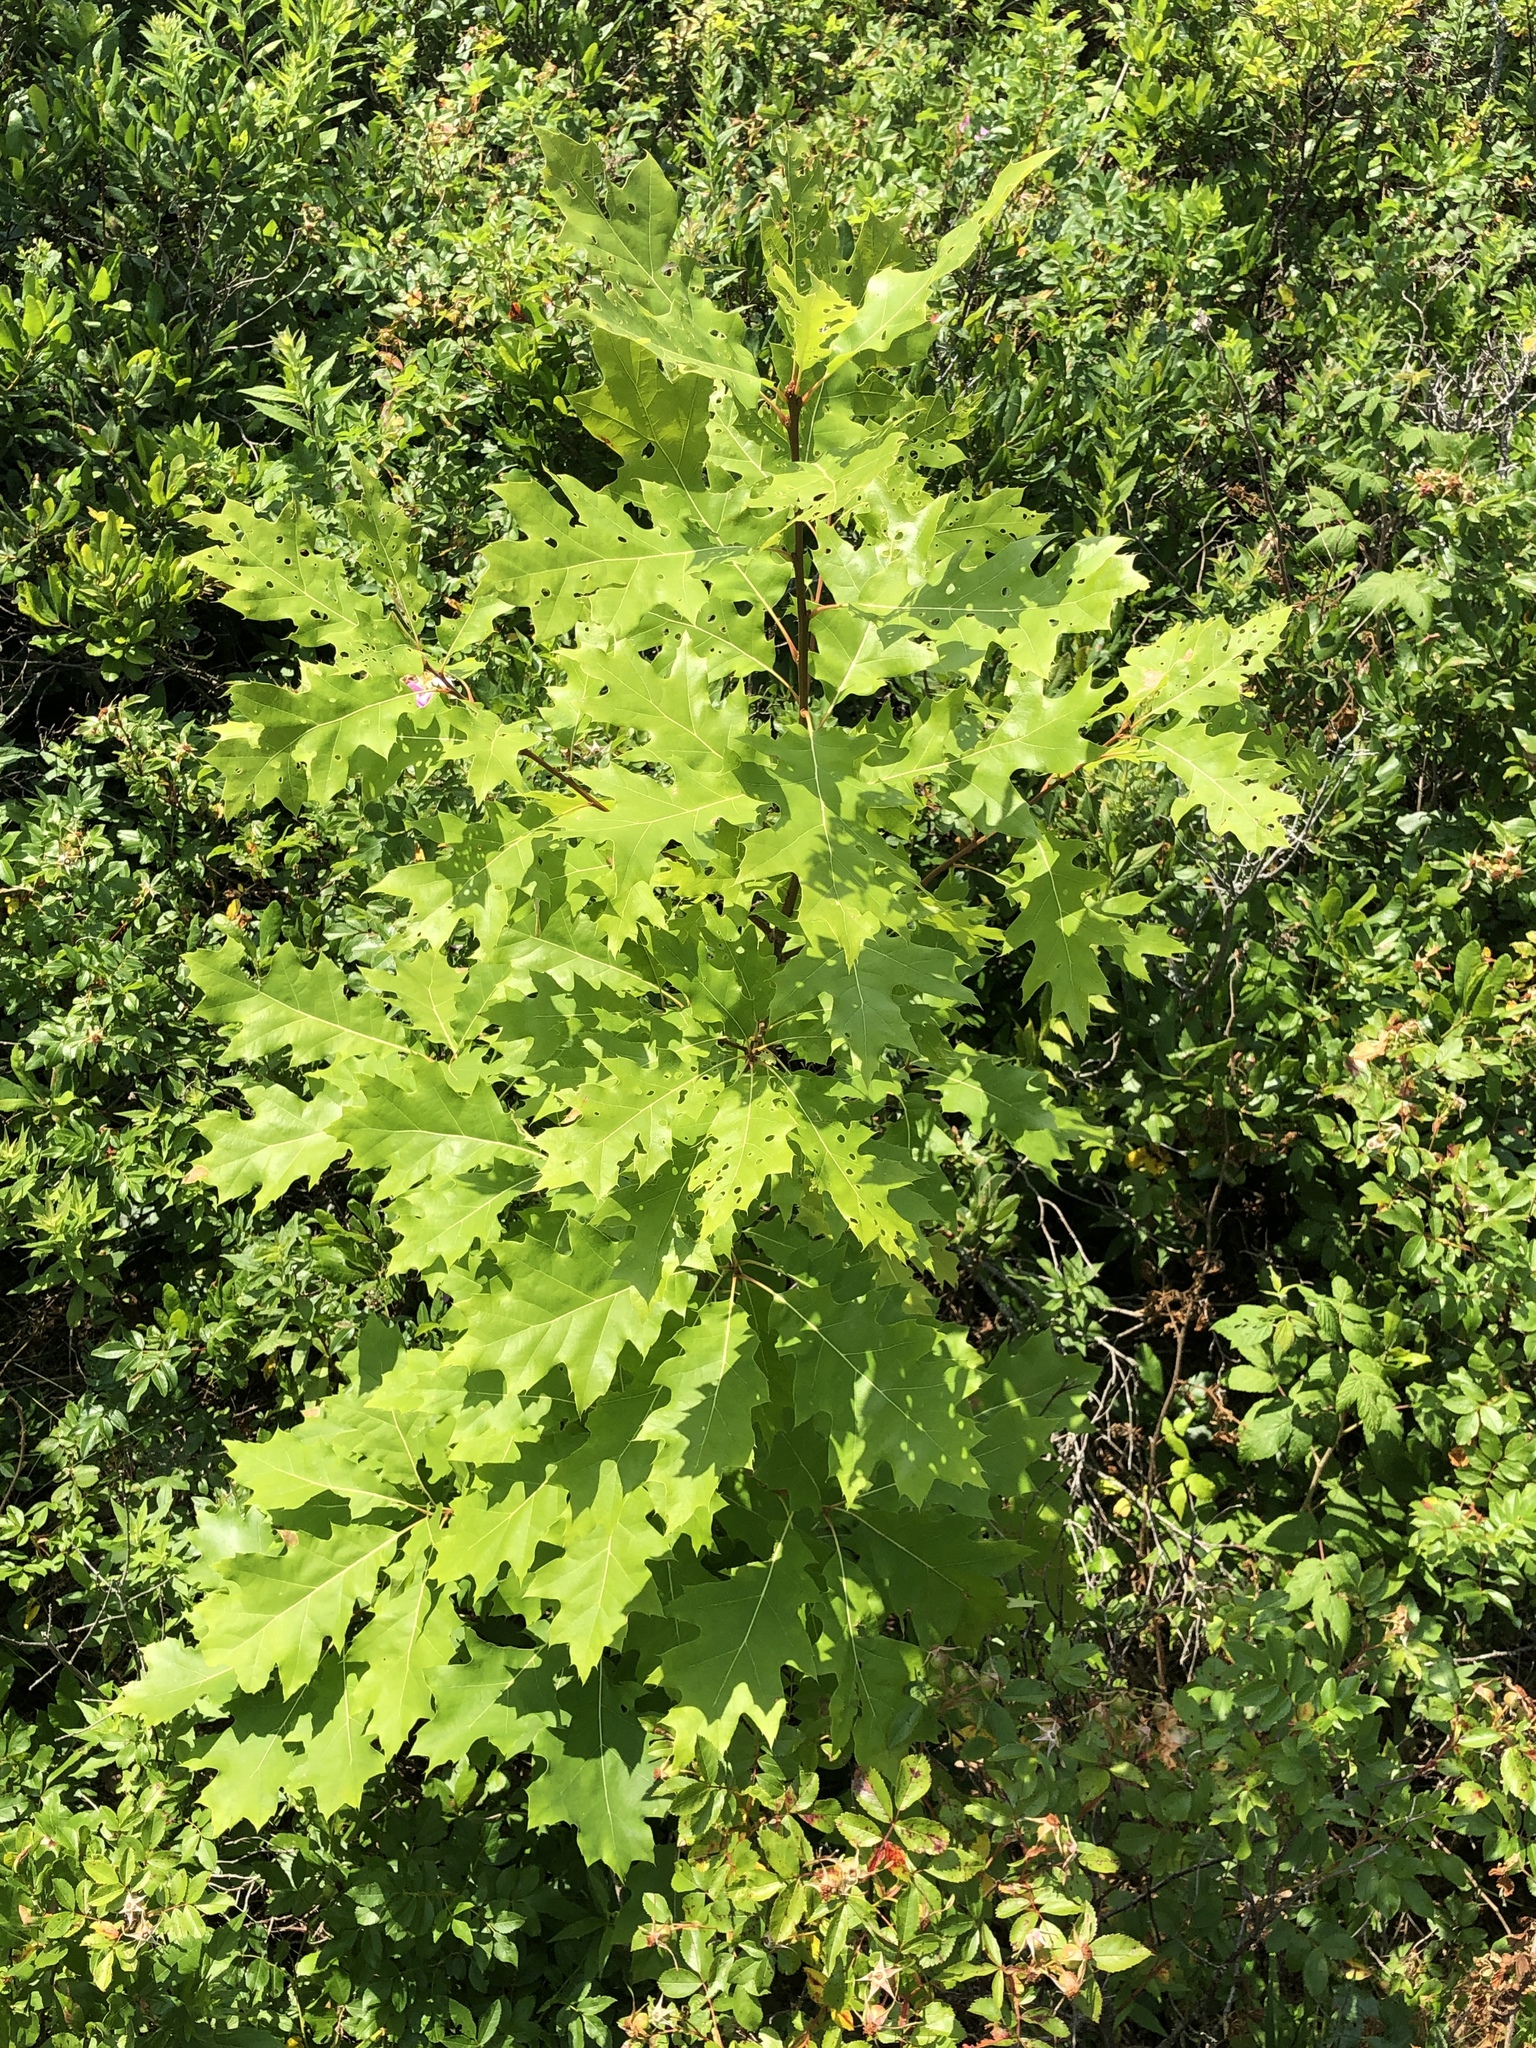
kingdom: Plantae
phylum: Tracheophyta
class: Magnoliopsida
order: Fagales
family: Fagaceae
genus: Quercus
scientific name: Quercus rubra
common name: Red oak
